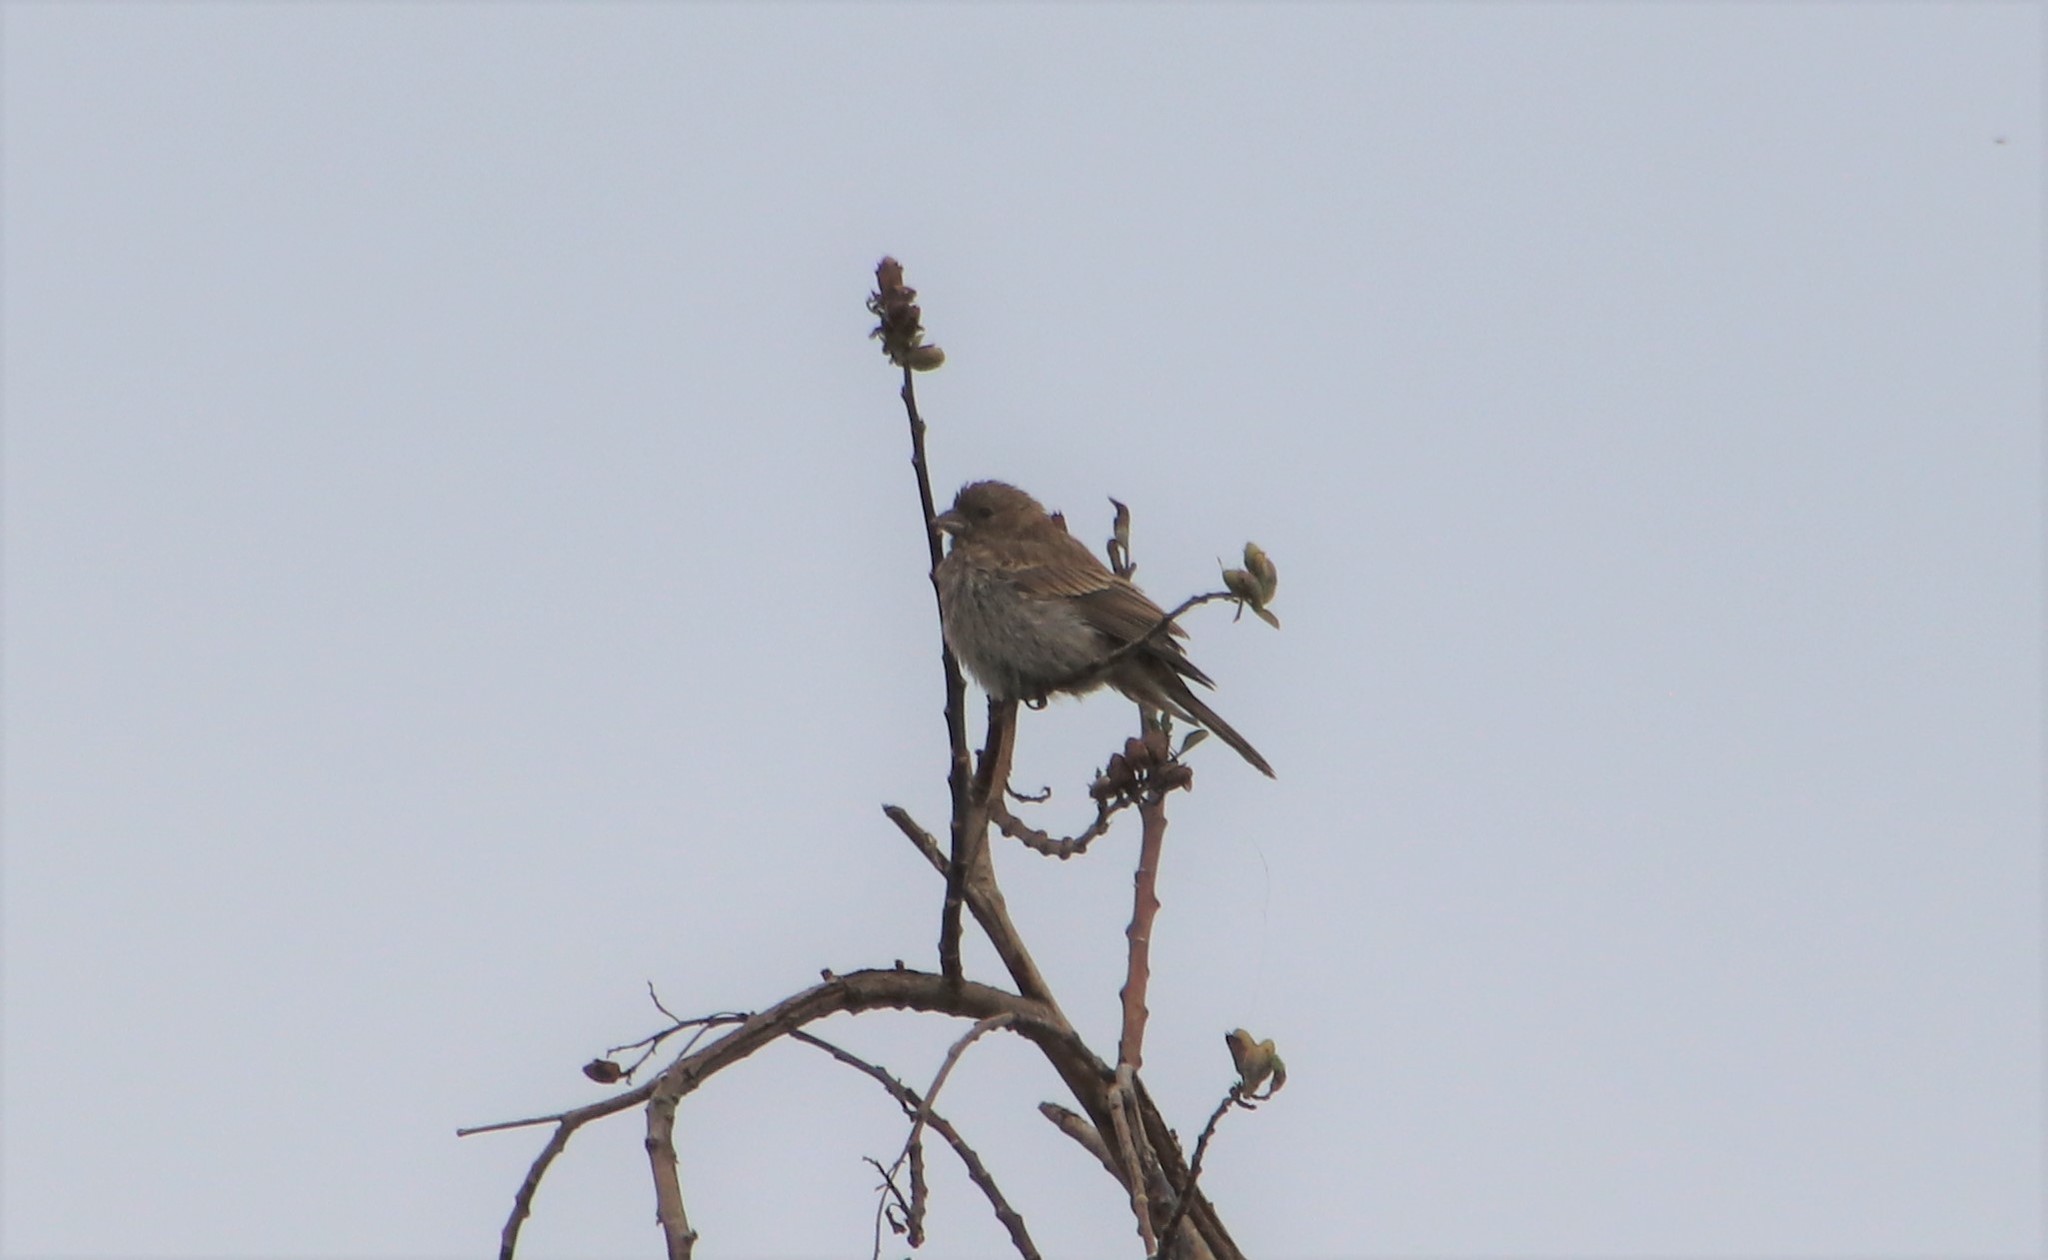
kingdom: Animalia
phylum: Chordata
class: Aves
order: Passeriformes
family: Fringillidae
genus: Haemorhous
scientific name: Haemorhous mexicanus
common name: House finch
